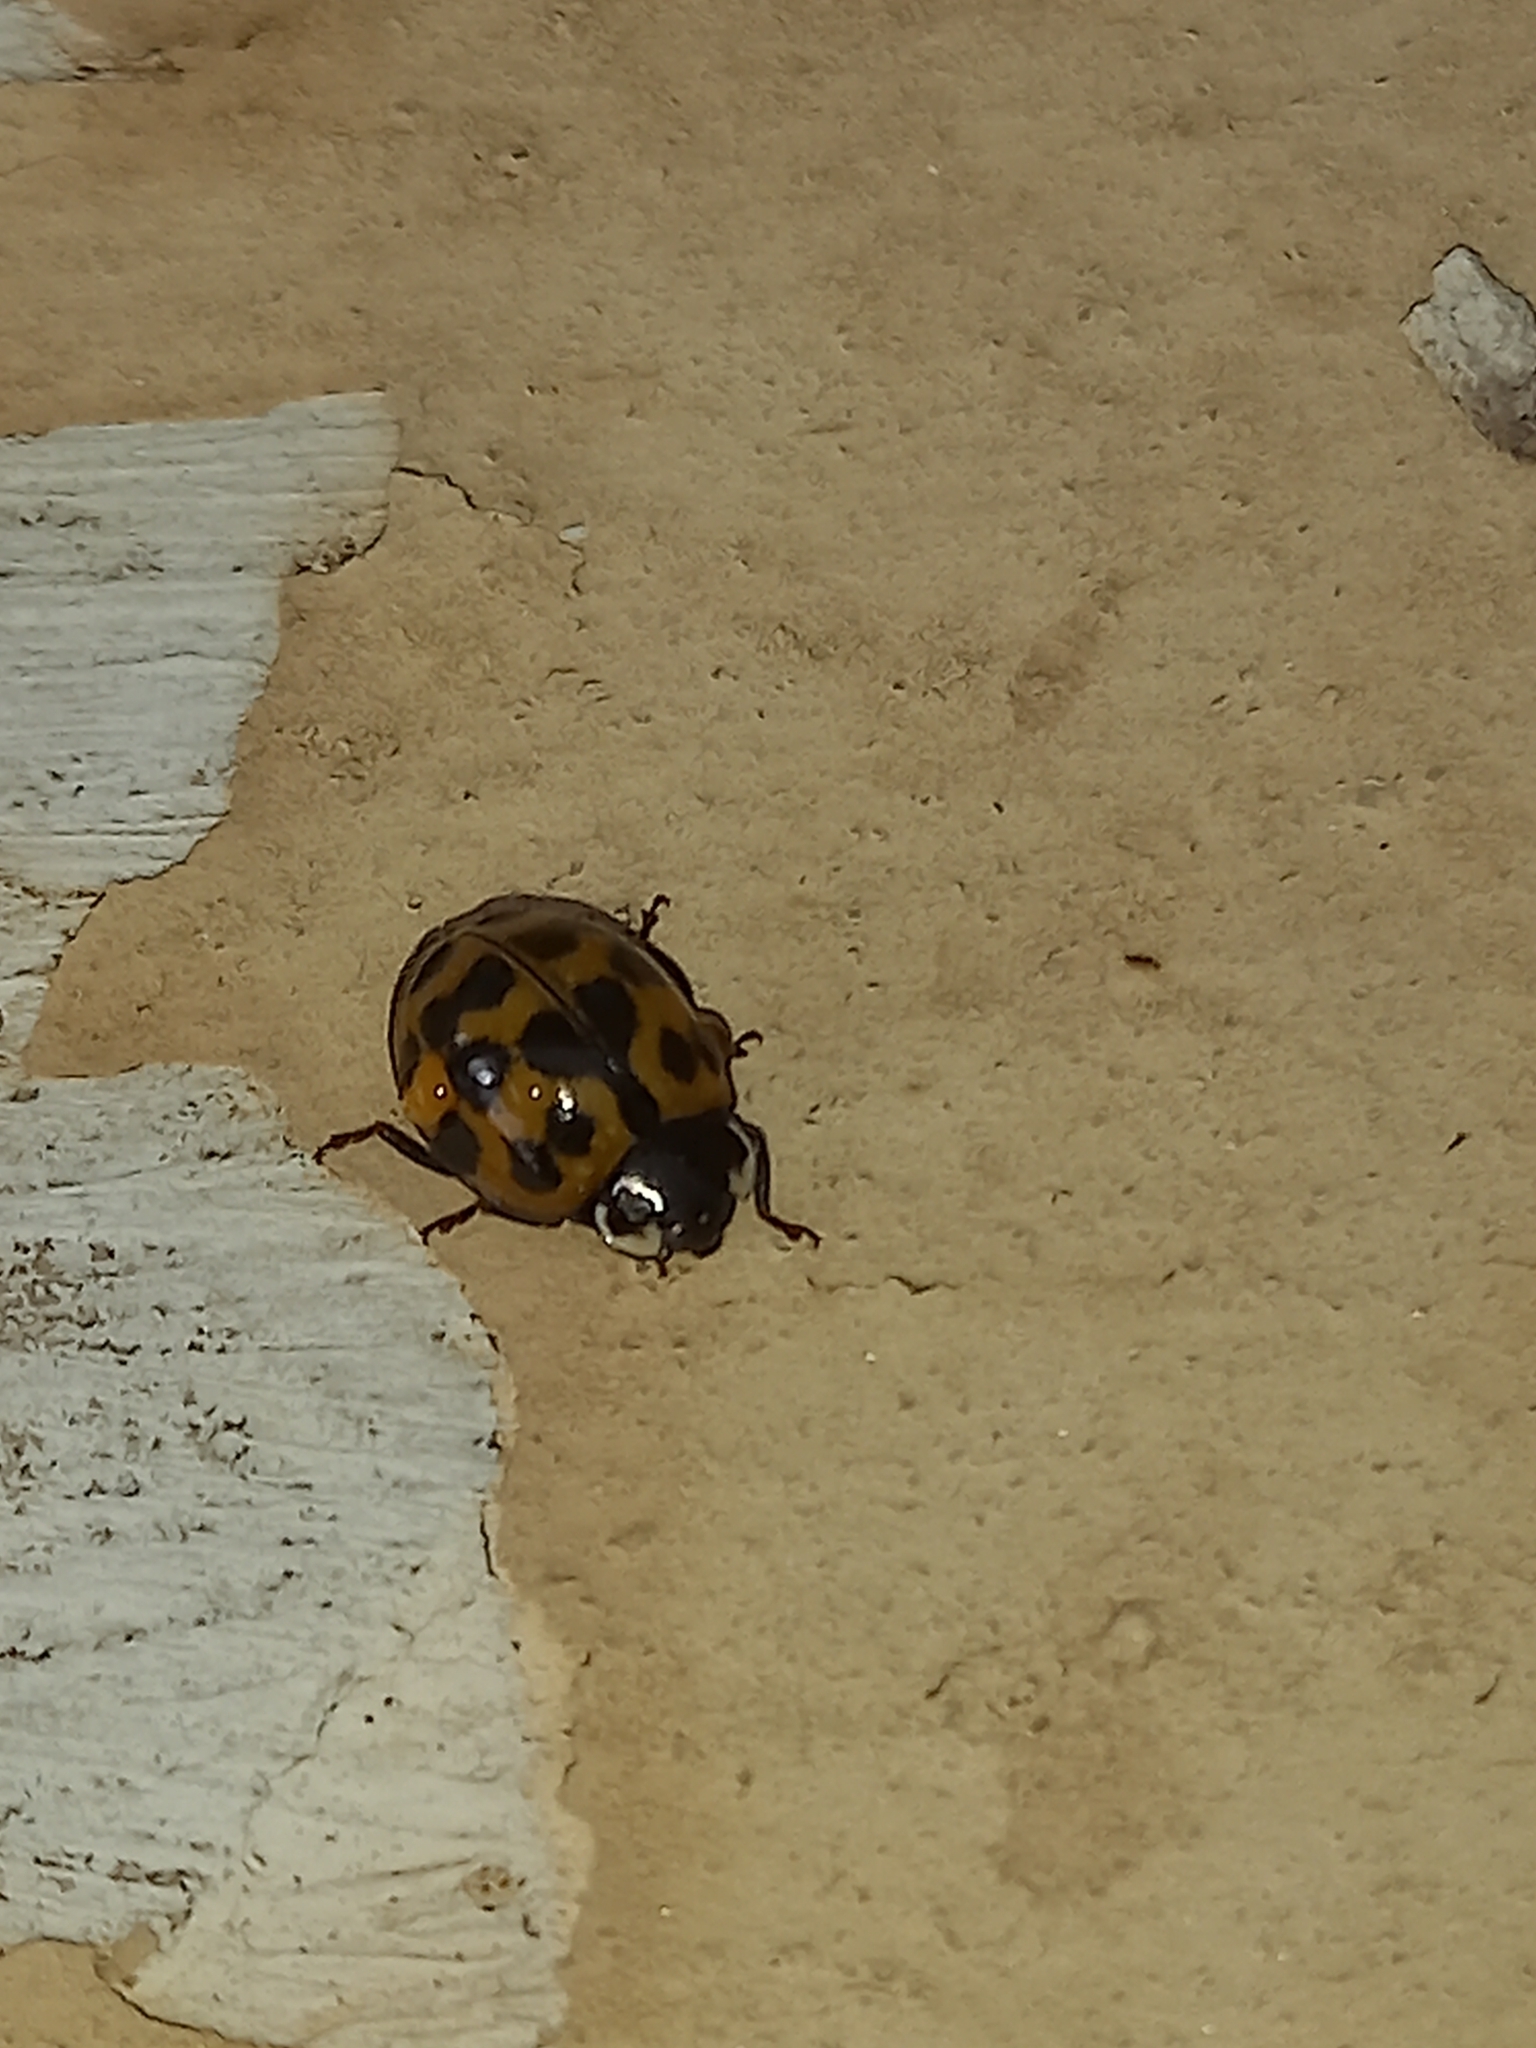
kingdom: Animalia
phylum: Arthropoda
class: Insecta
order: Coleoptera
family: Coccinellidae
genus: Harmonia
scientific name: Harmonia axyridis
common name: Harlequin ladybird
